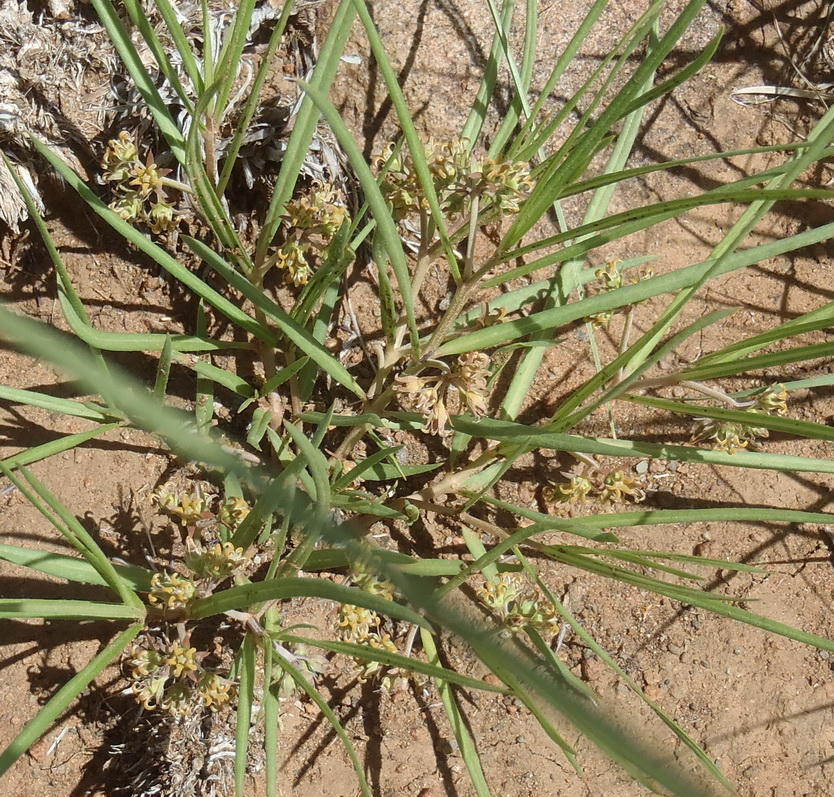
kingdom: Plantae
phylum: Tracheophyta
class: Magnoliopsida
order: Gentianales
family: Apocynaceae
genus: Stenostelma
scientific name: Stenostelma capense
